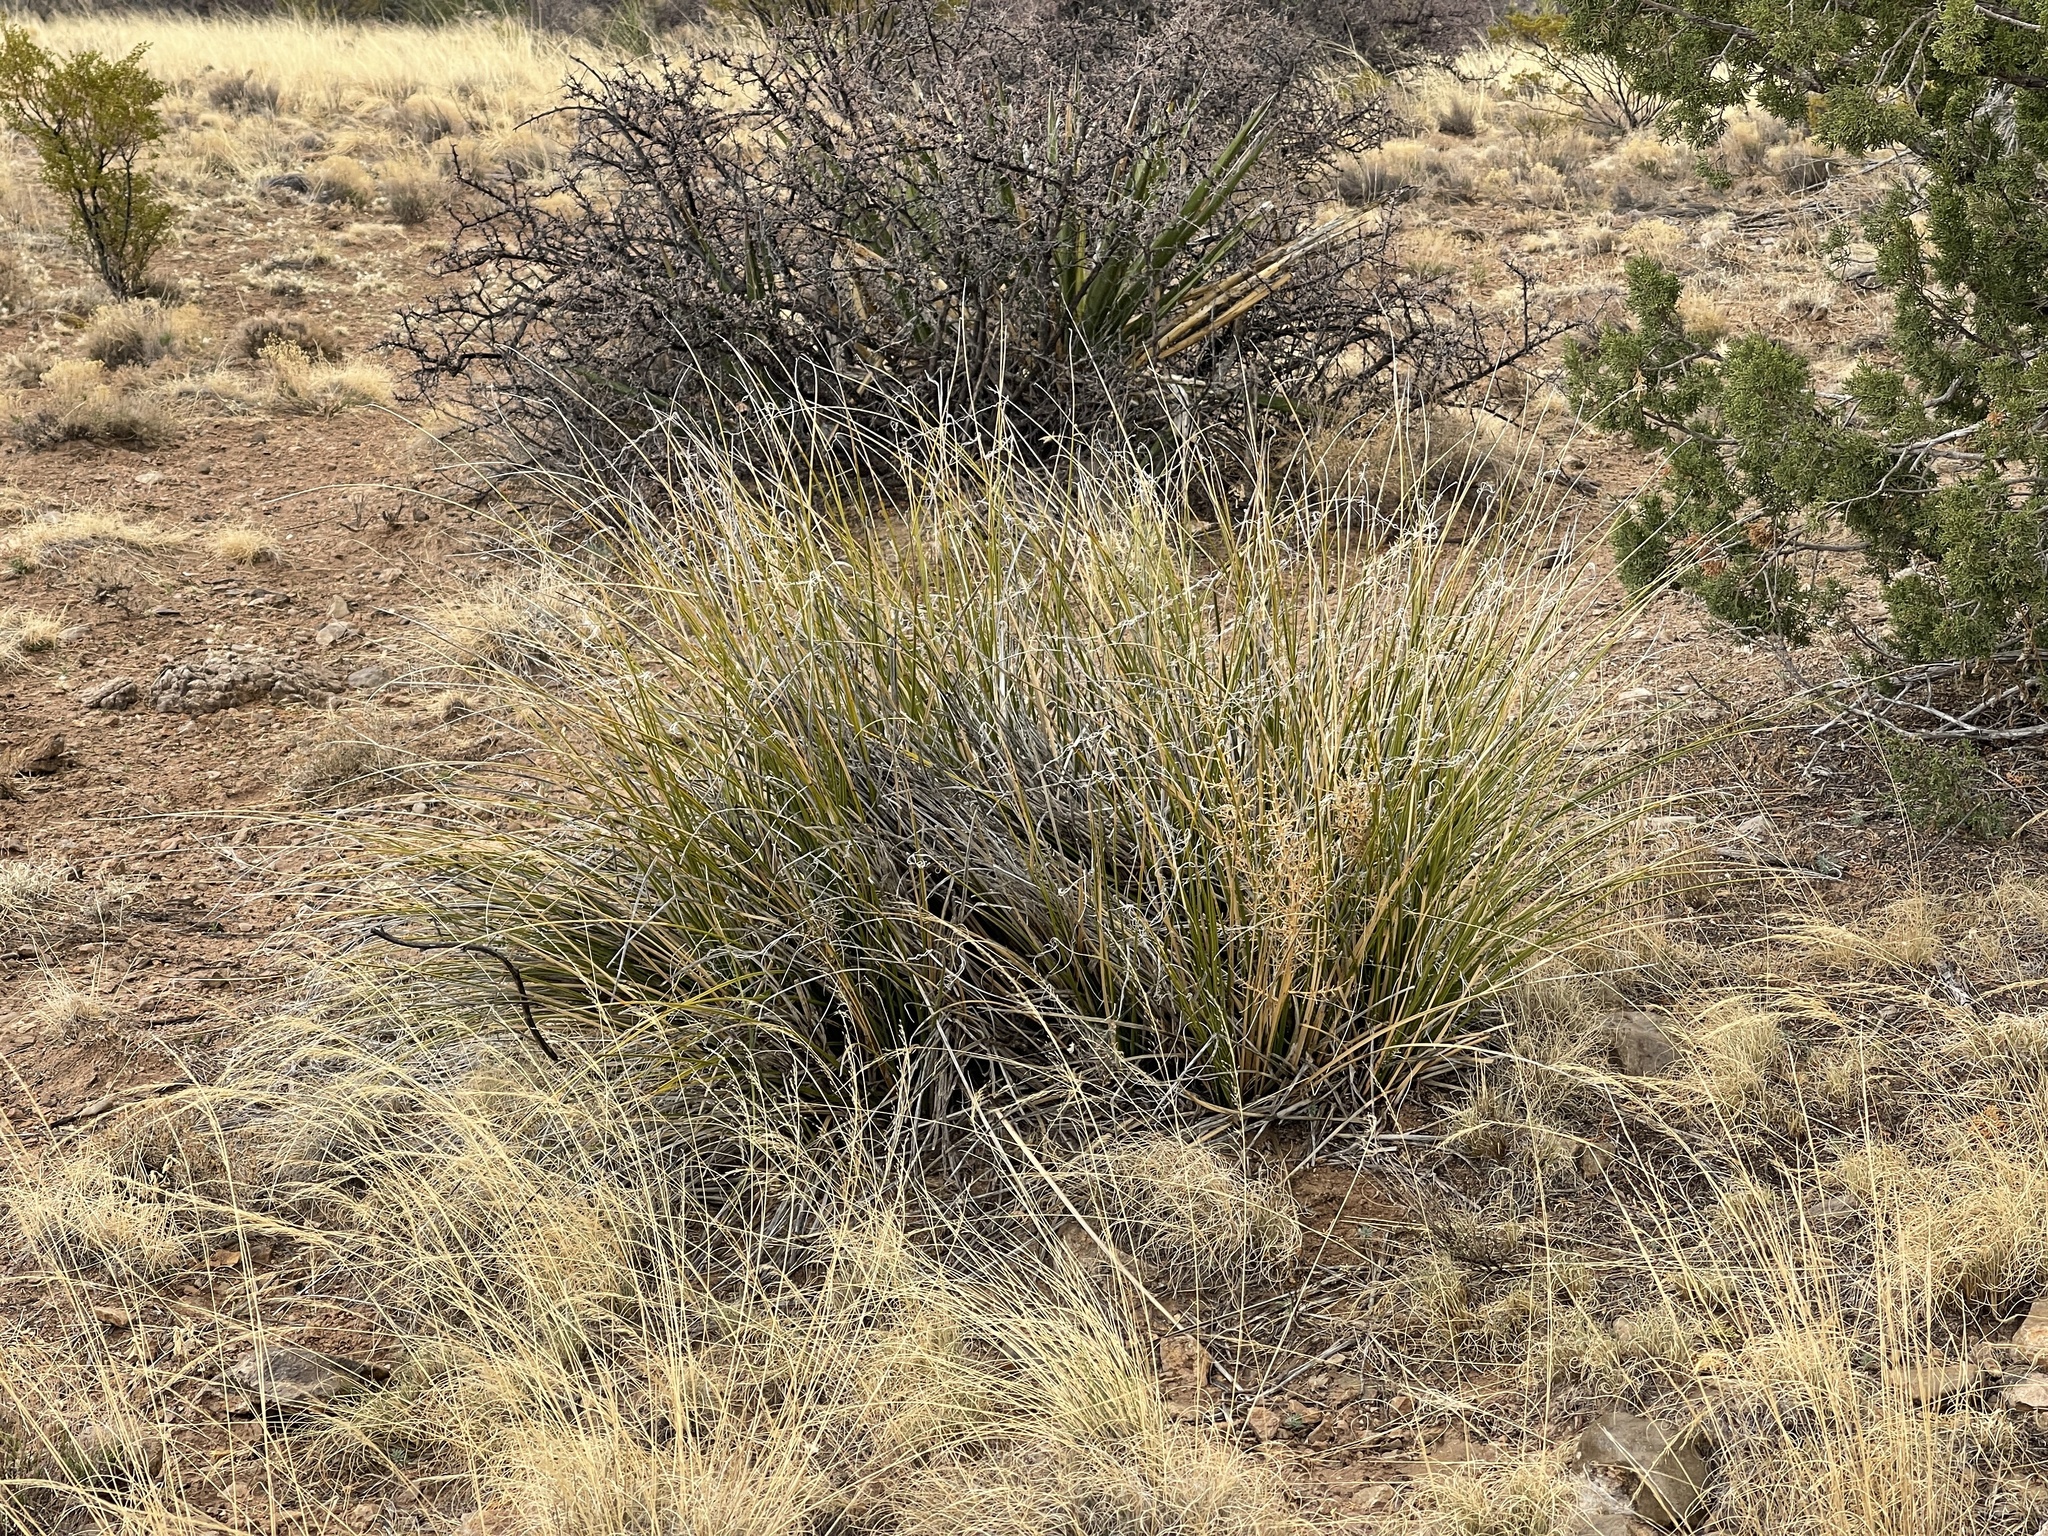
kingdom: Plantae
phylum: Tracheophyta
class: Liliopsida
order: Asparagales
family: Asparagaceae
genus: Nolina
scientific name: Nolina texana
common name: Texas sacahuiste
